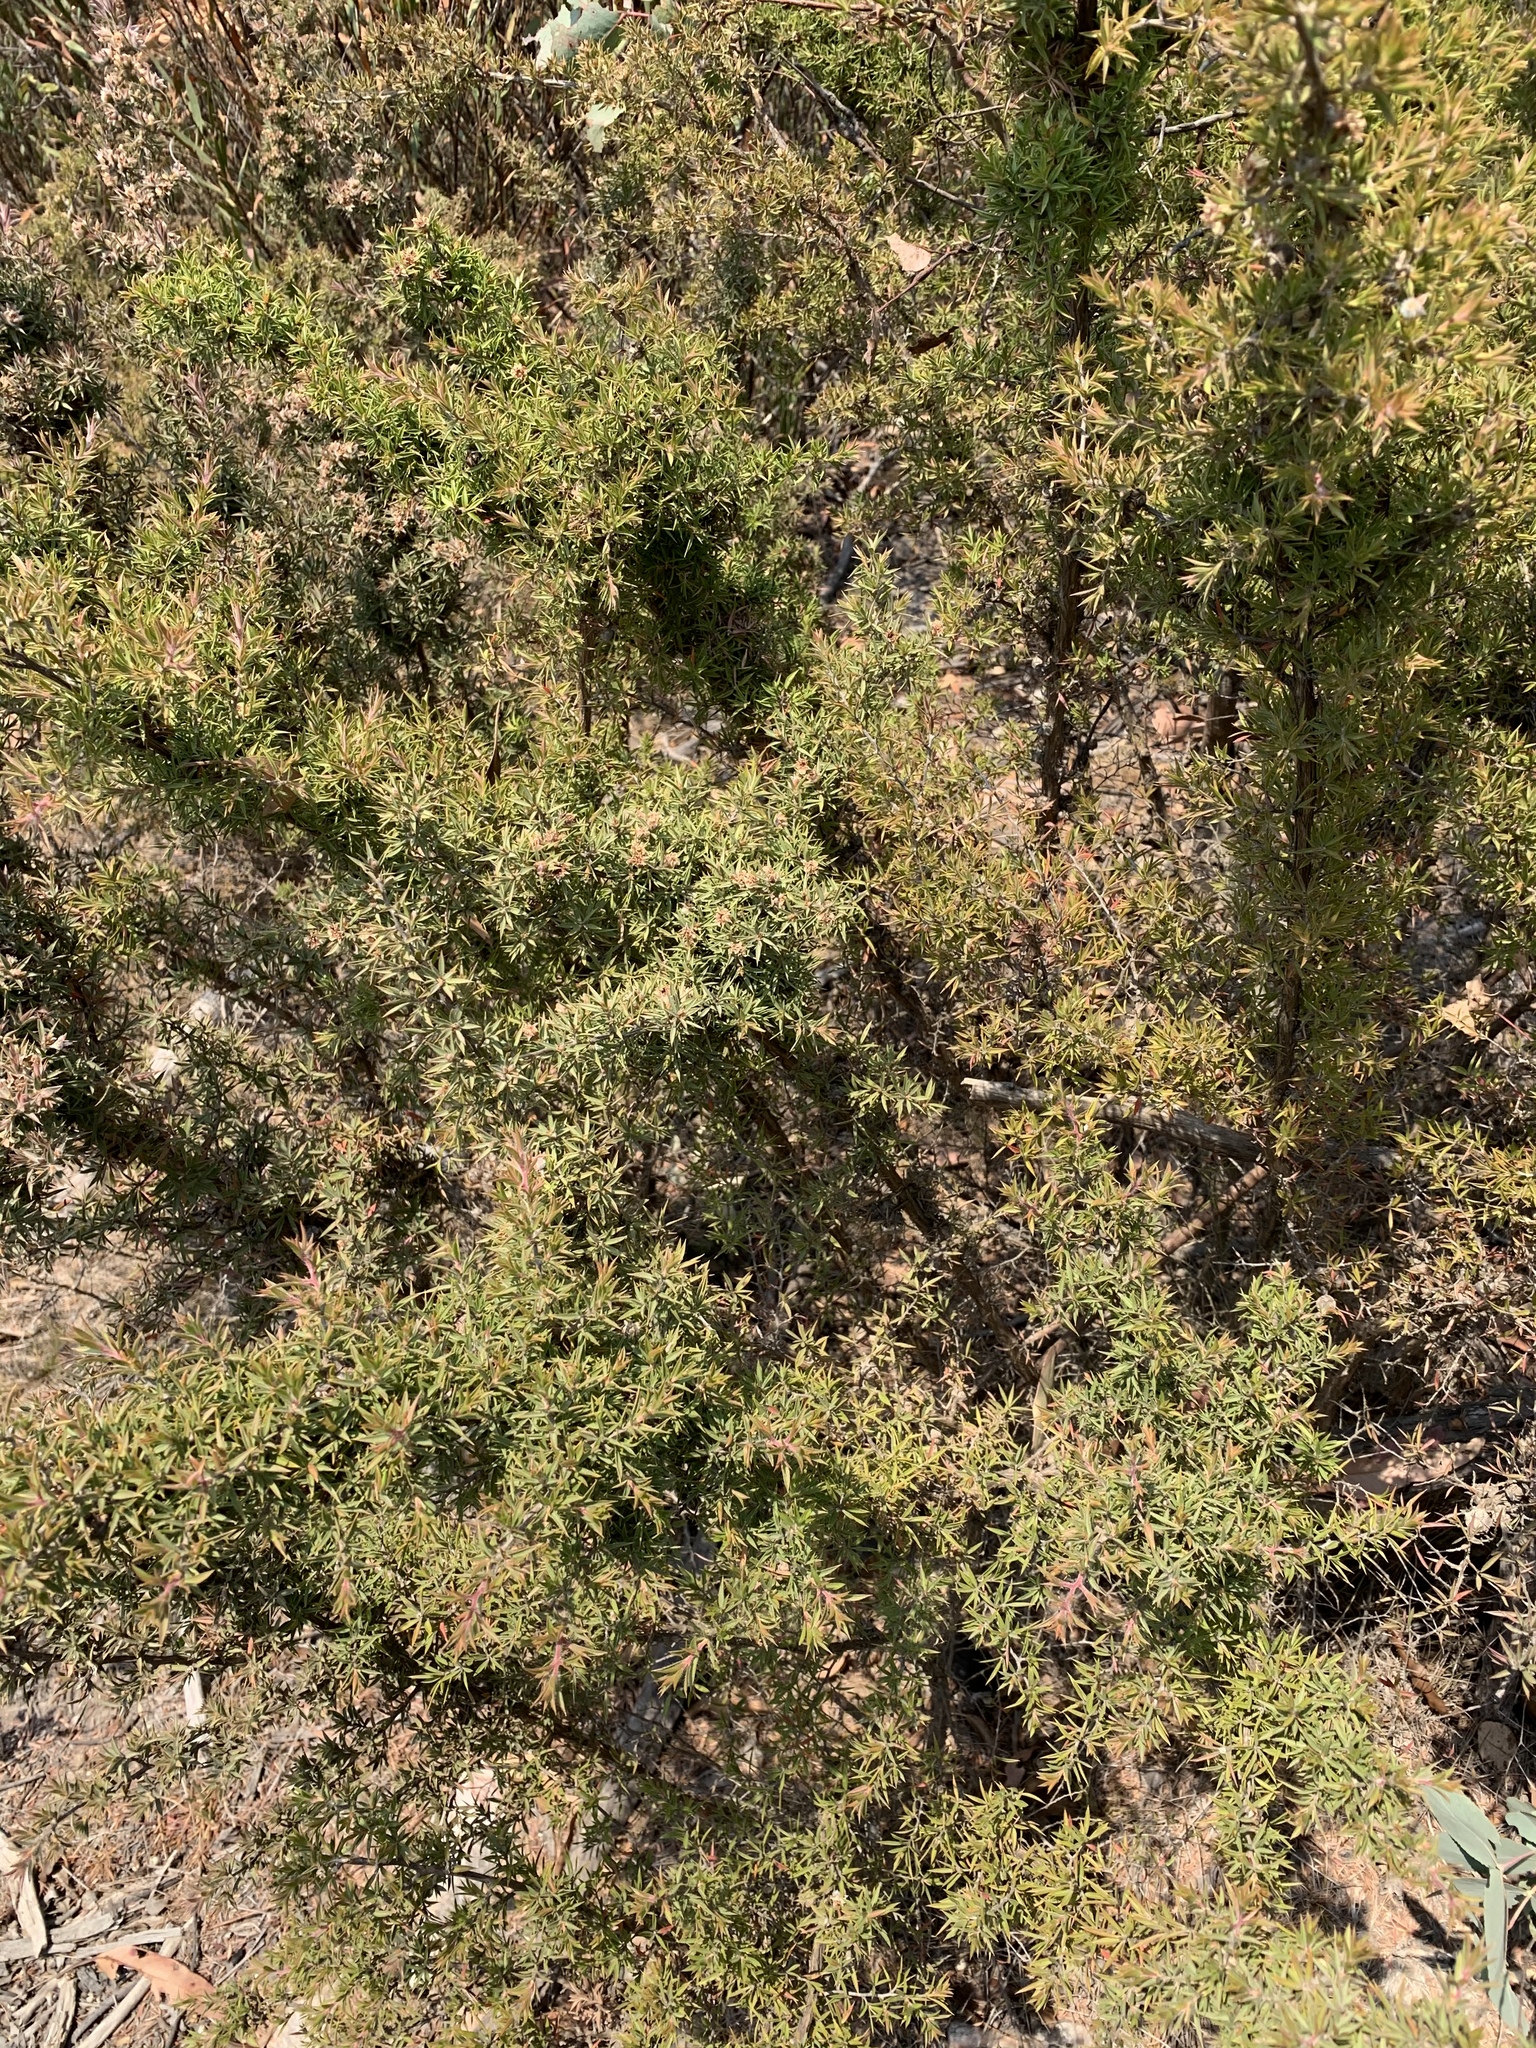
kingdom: Plantae
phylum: Tracheophyta
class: Magnoliopsida
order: Myrtales
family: Myrtaceae
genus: Leptospermum
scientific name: Leptospermum arachnoides
